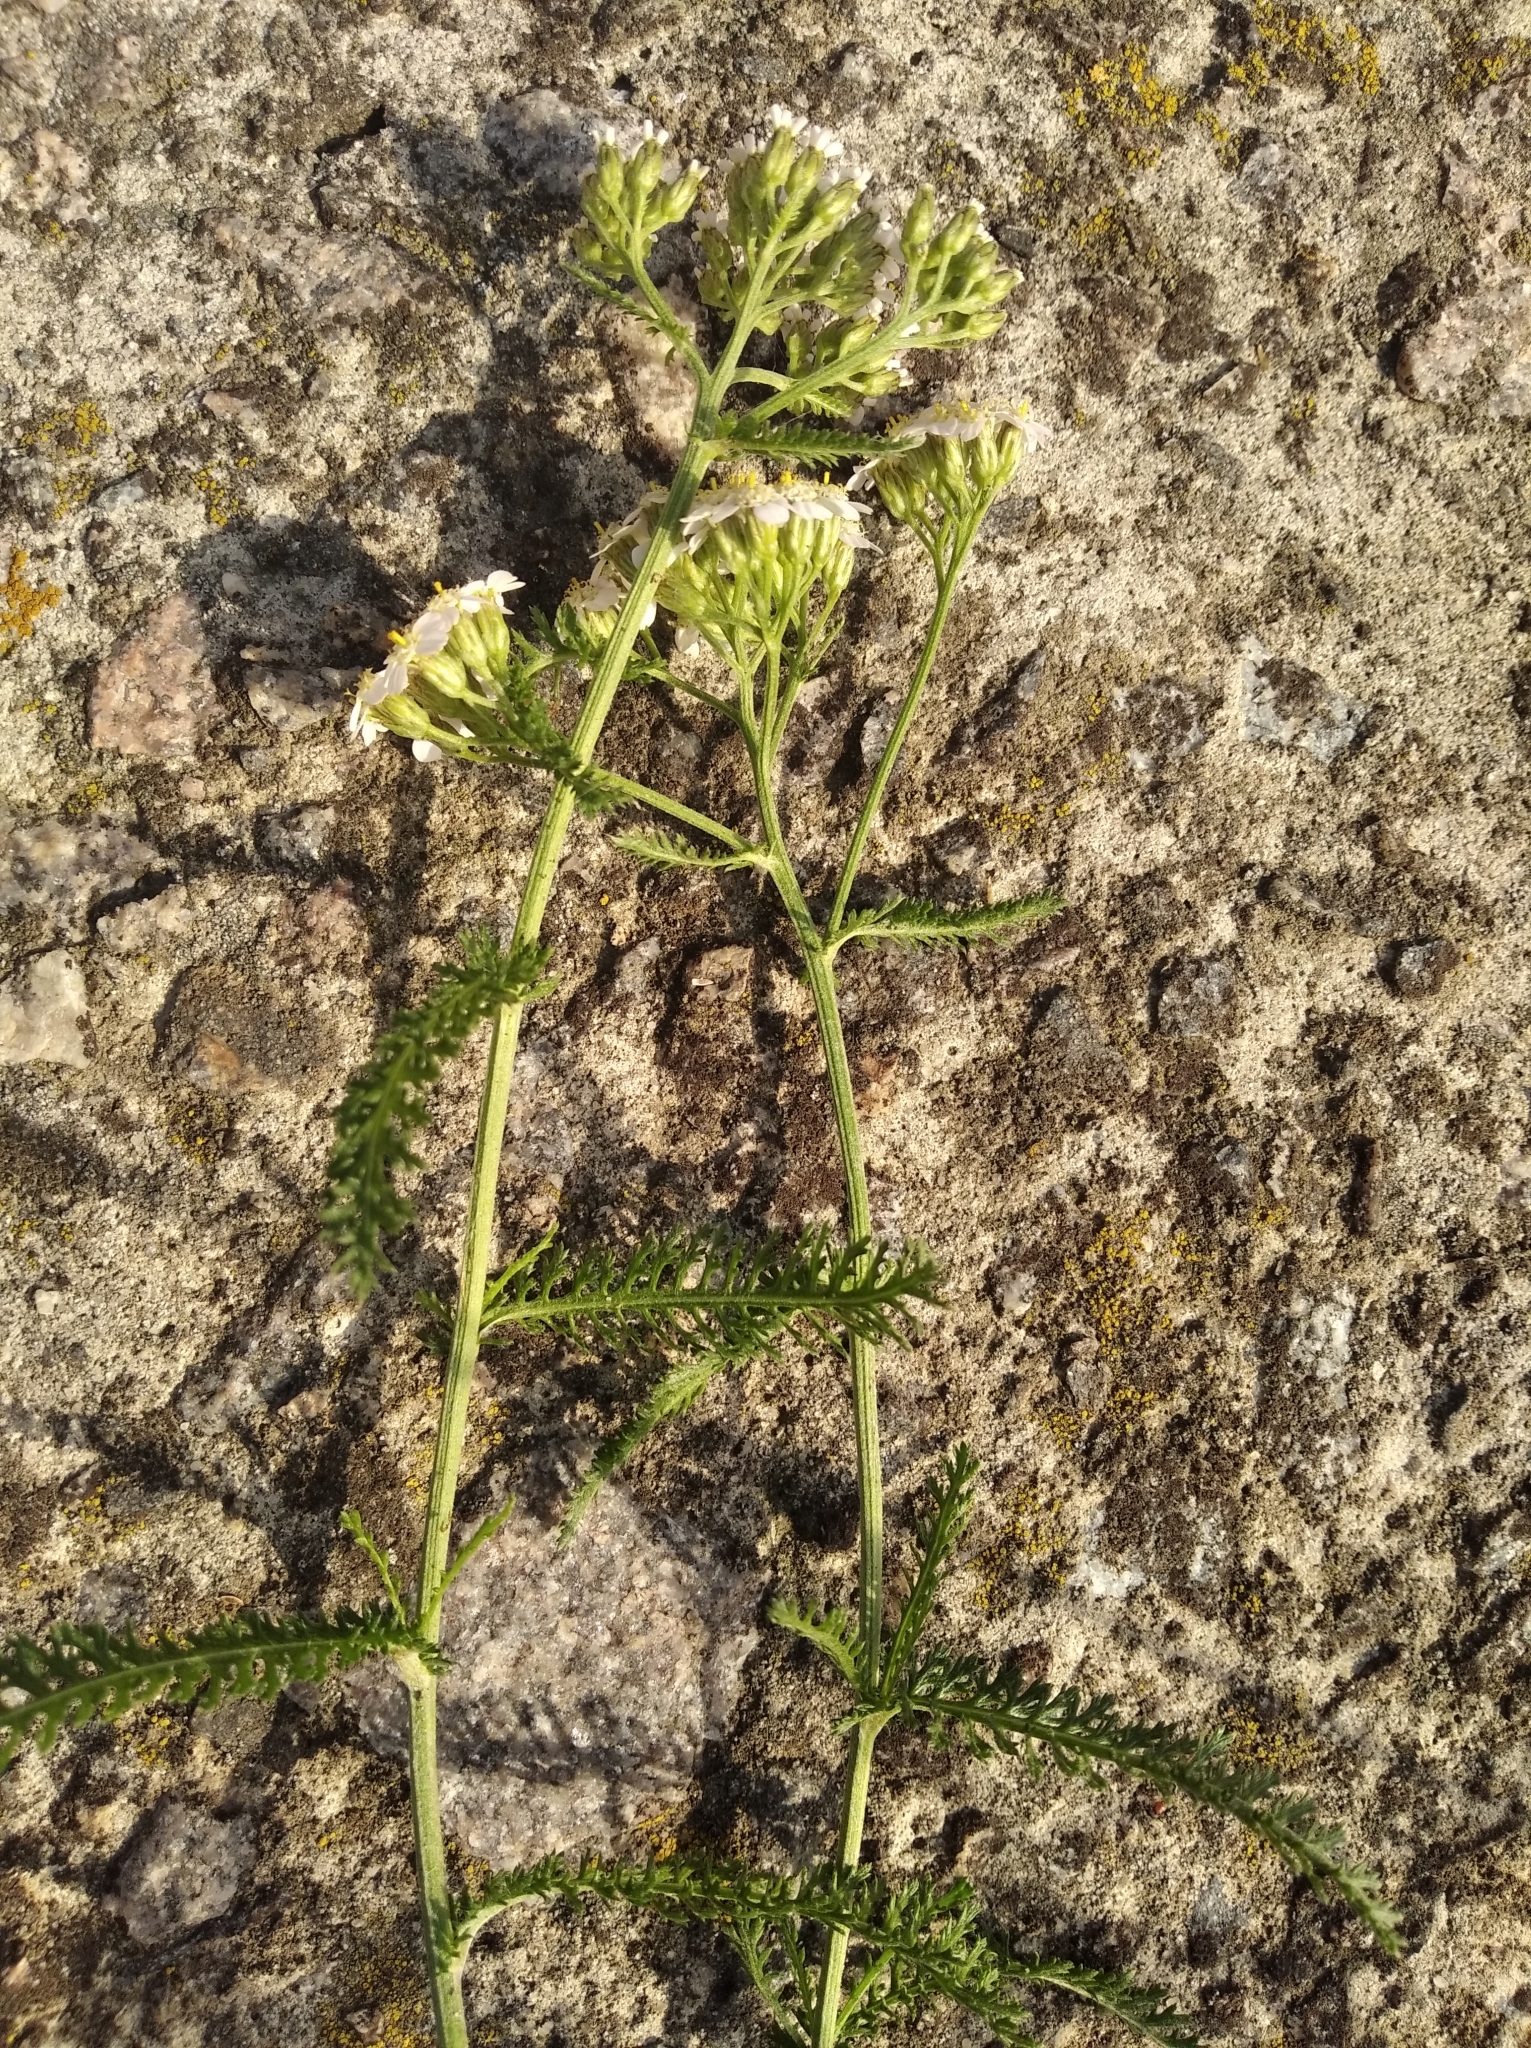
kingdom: Plantae
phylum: Tracheophyta
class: Magnoliopsida
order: Asterales
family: Asteraceae
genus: Achillea
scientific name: Achillea millefolium
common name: Yarrow
